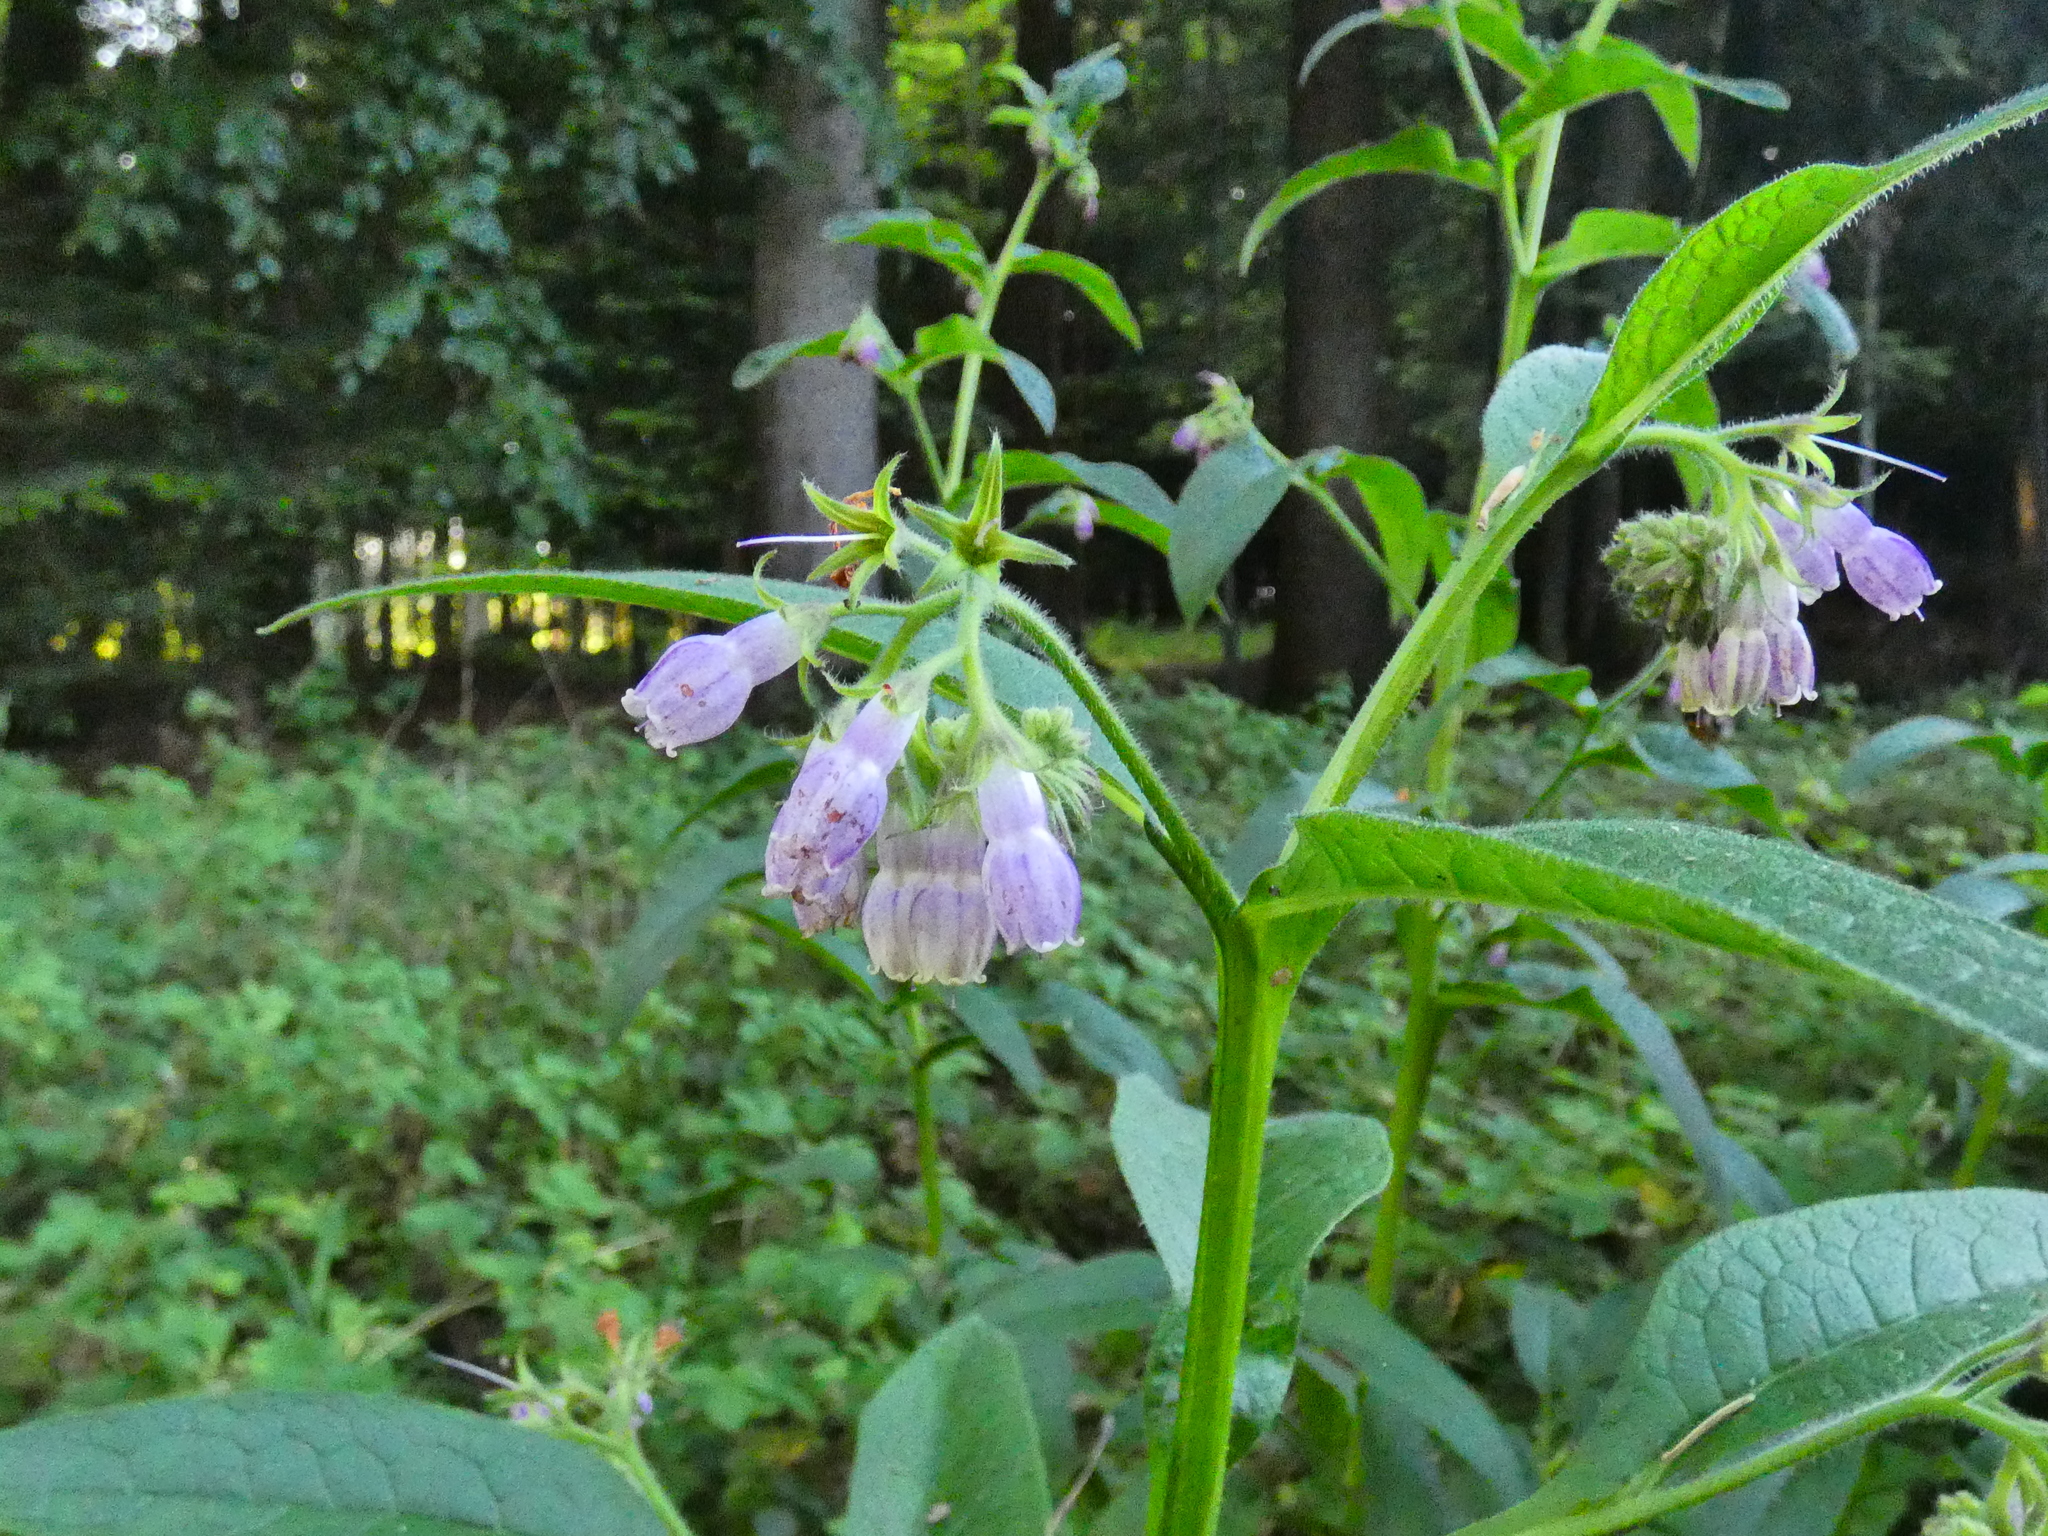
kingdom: Plantae
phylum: Tracheophyta
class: Magnoliopsida
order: Boraginales
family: Boraginaceae
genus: Symphytum
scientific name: Symphytum officinale
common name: Common comfrey
